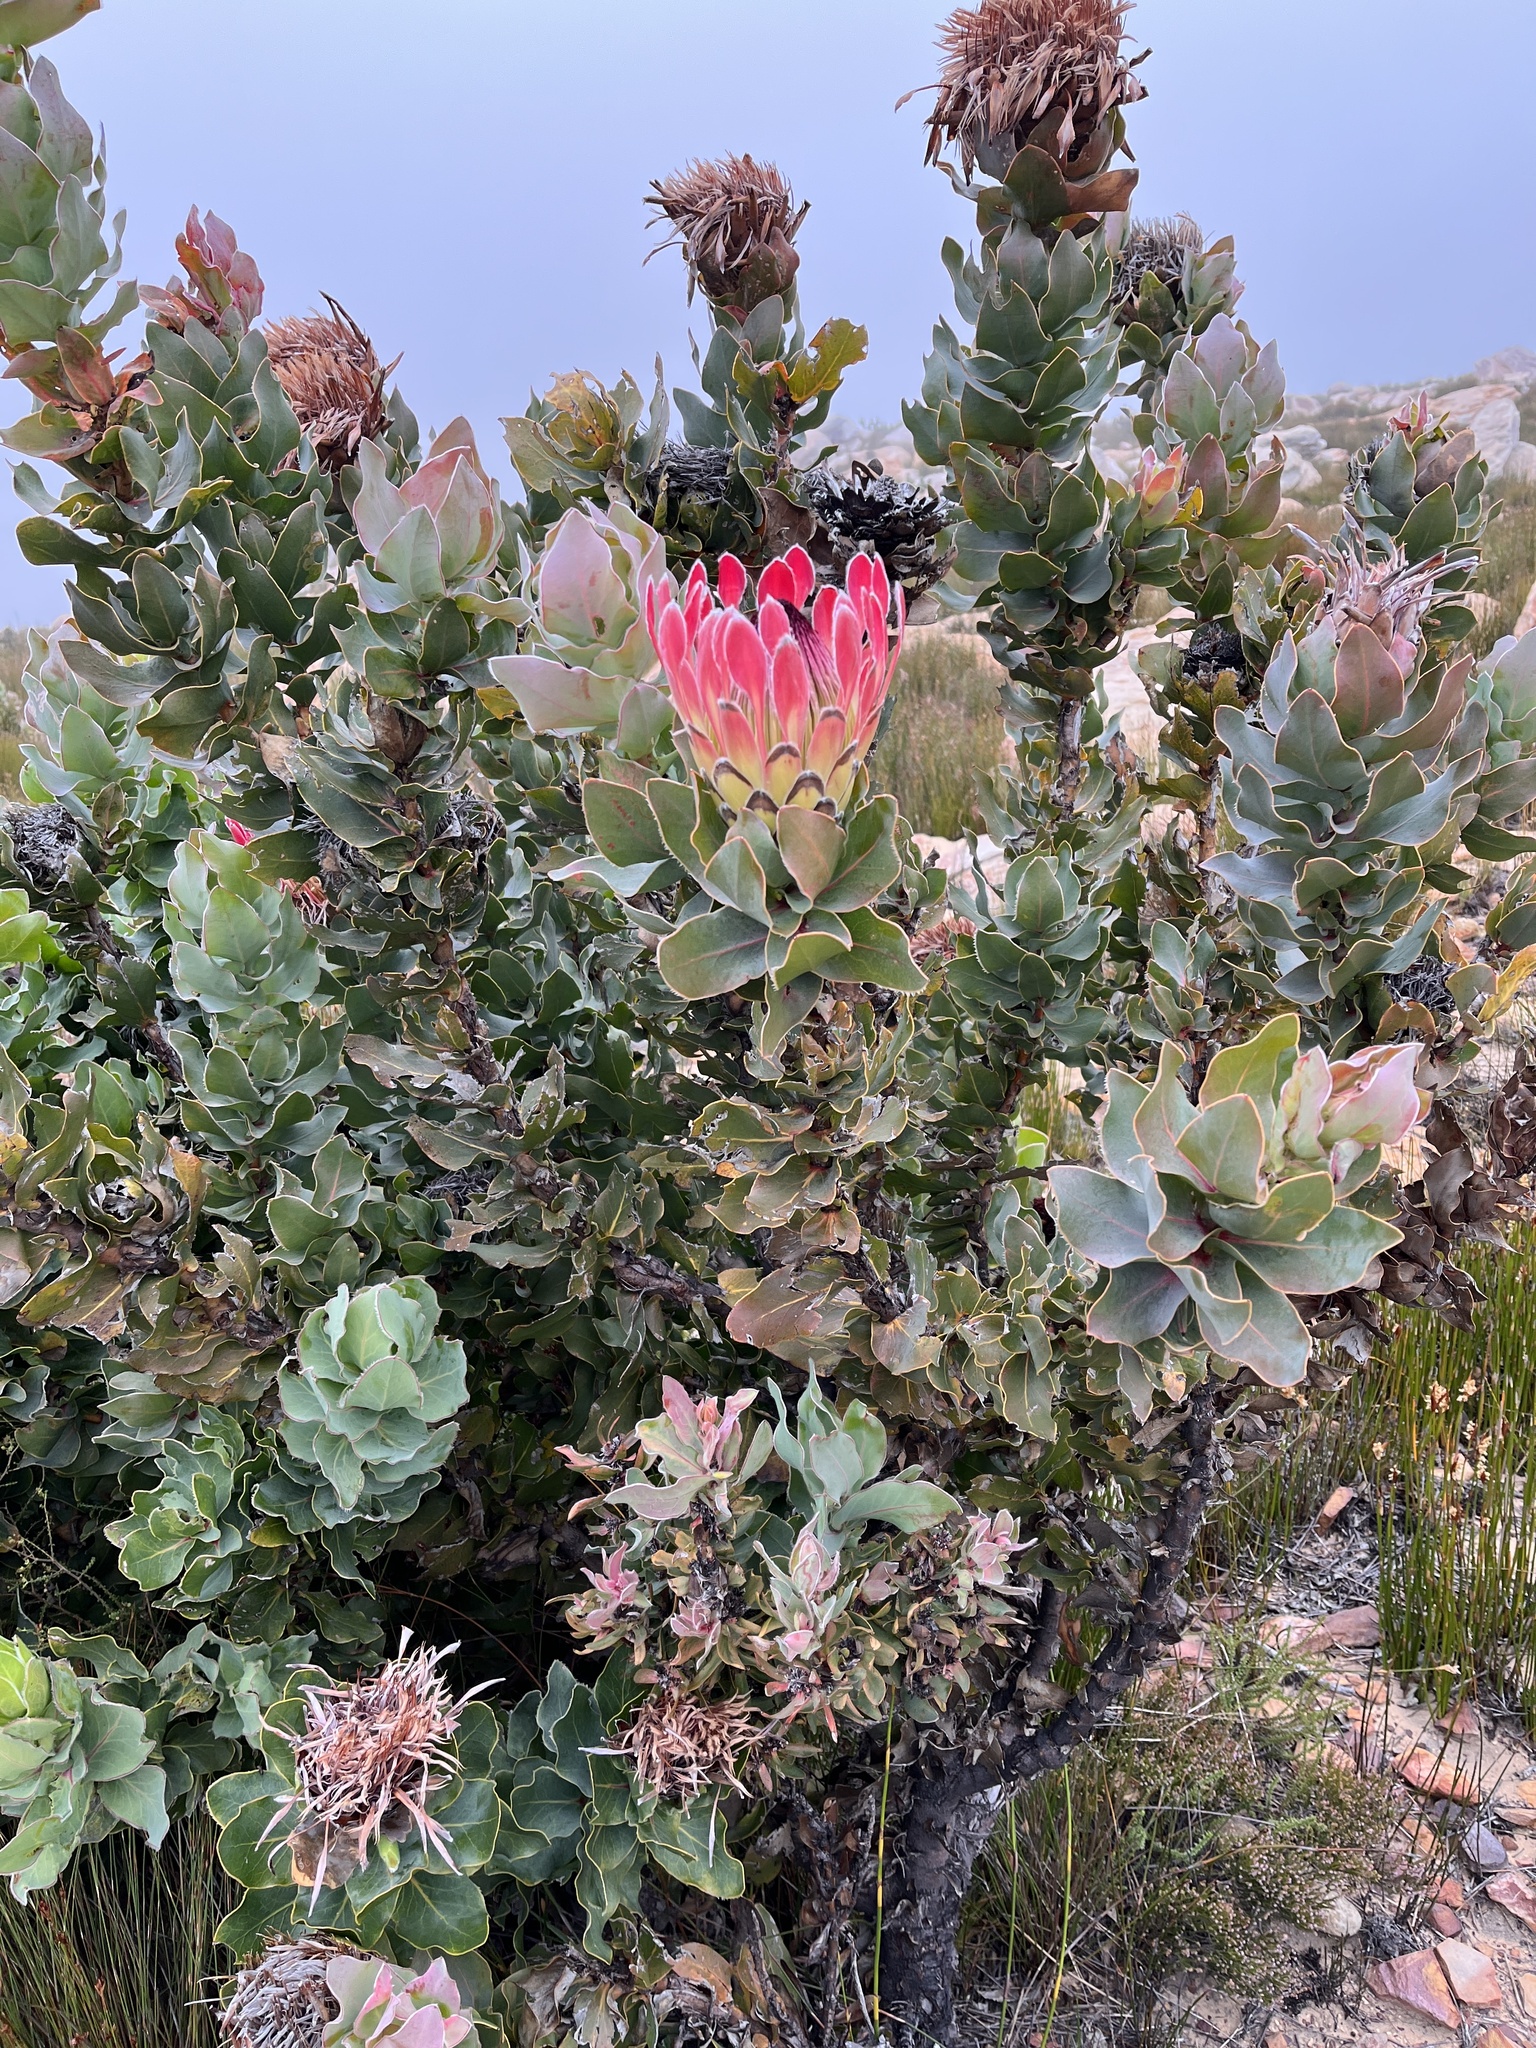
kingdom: Plantae
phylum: Tracheophyta
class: Magnoliopsida
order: Proteales
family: Proteaceae
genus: Protea
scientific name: Protea eximia
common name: Broad-leaved sugarbush
